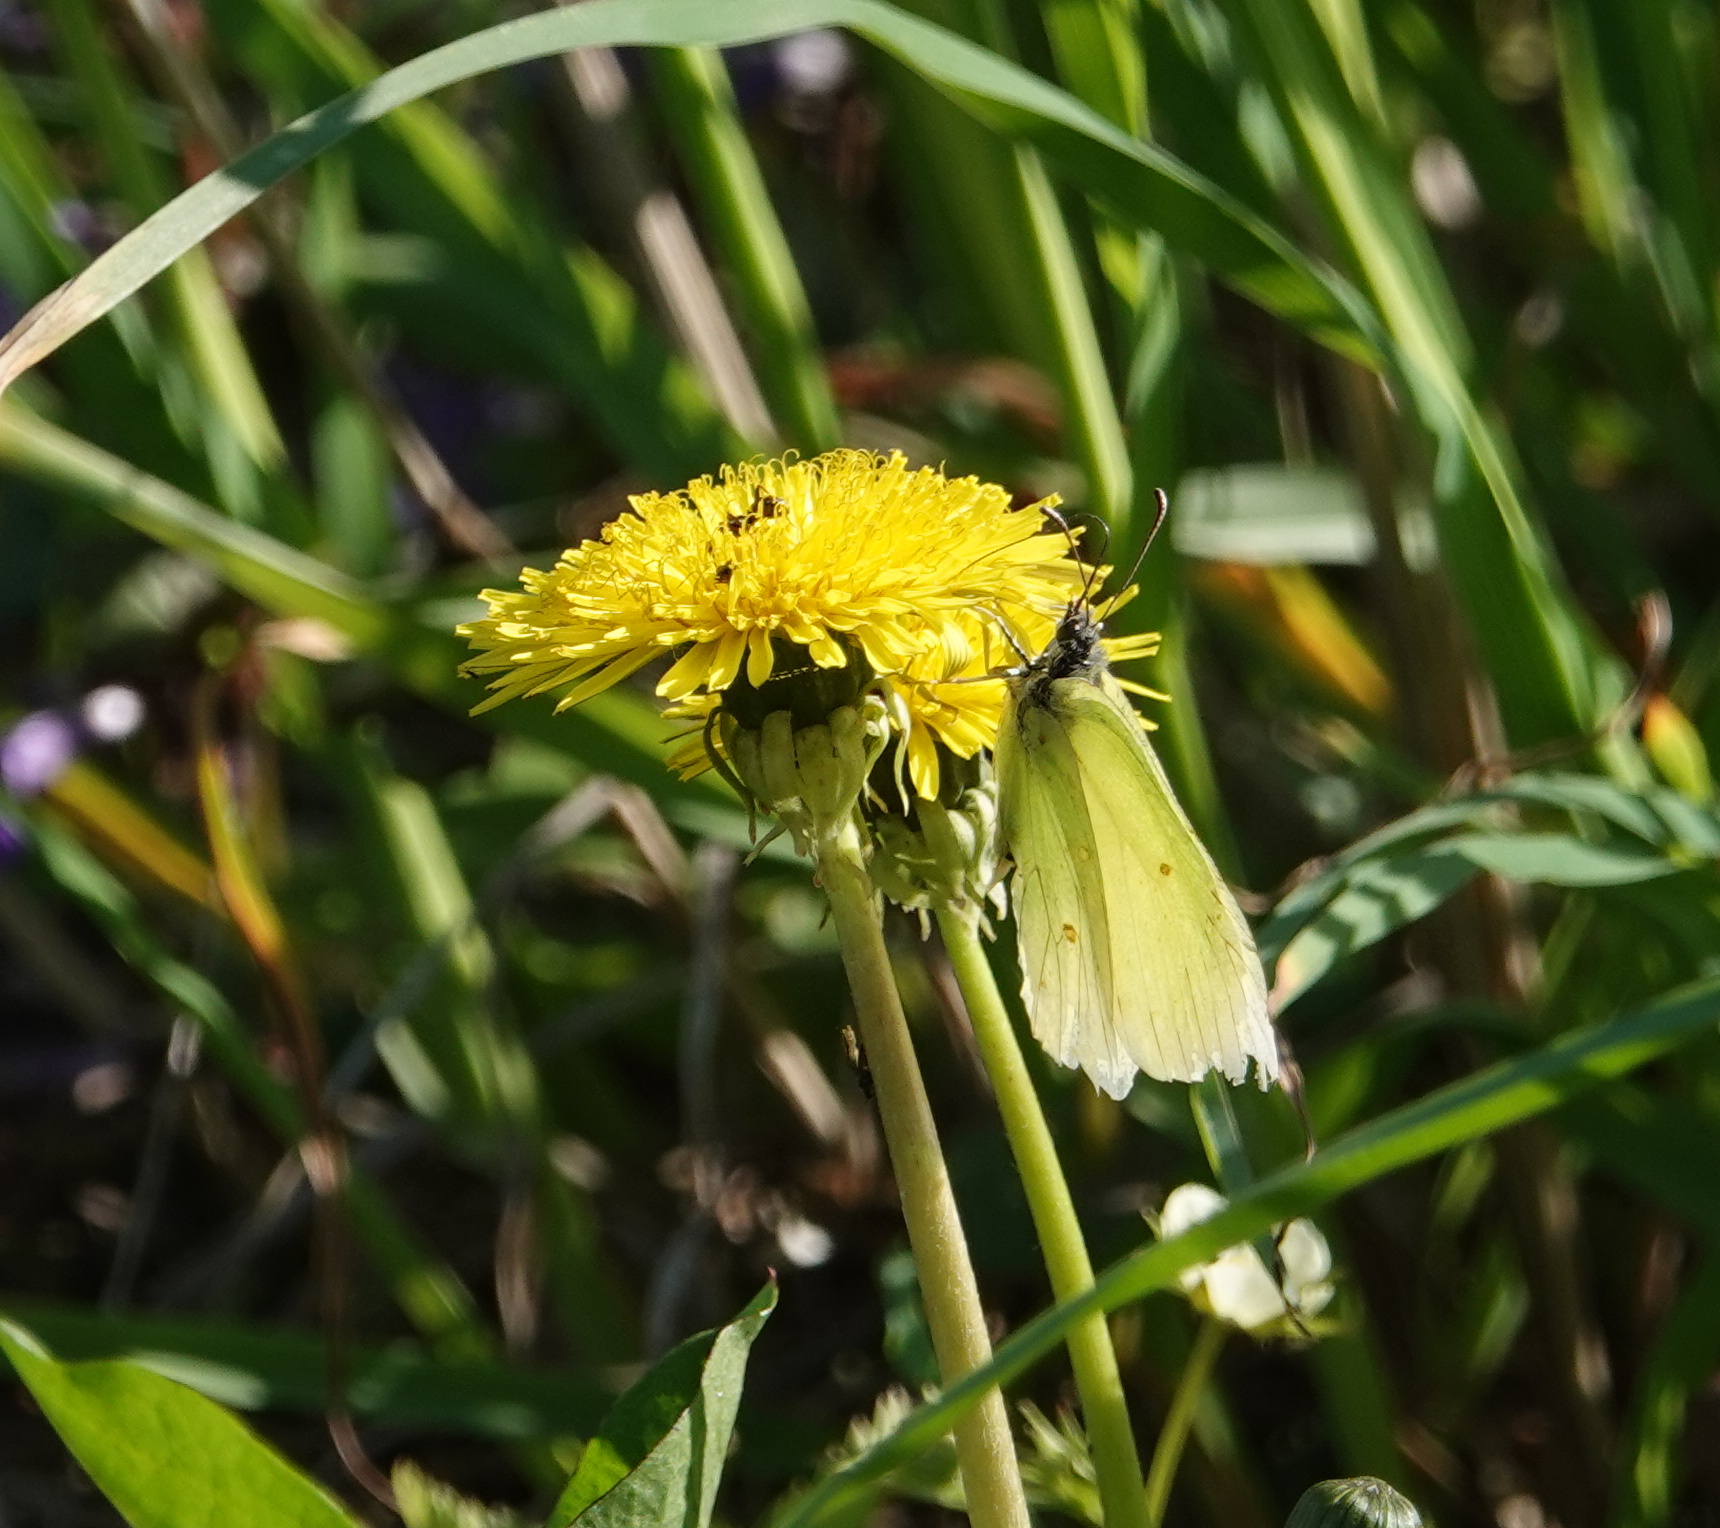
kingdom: Animalia
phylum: Arthropoda
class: Insecta
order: Lepidoptera
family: Pieridae
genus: Gonepteryx
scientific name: Gonepteryx rhamni
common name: Brimstone
